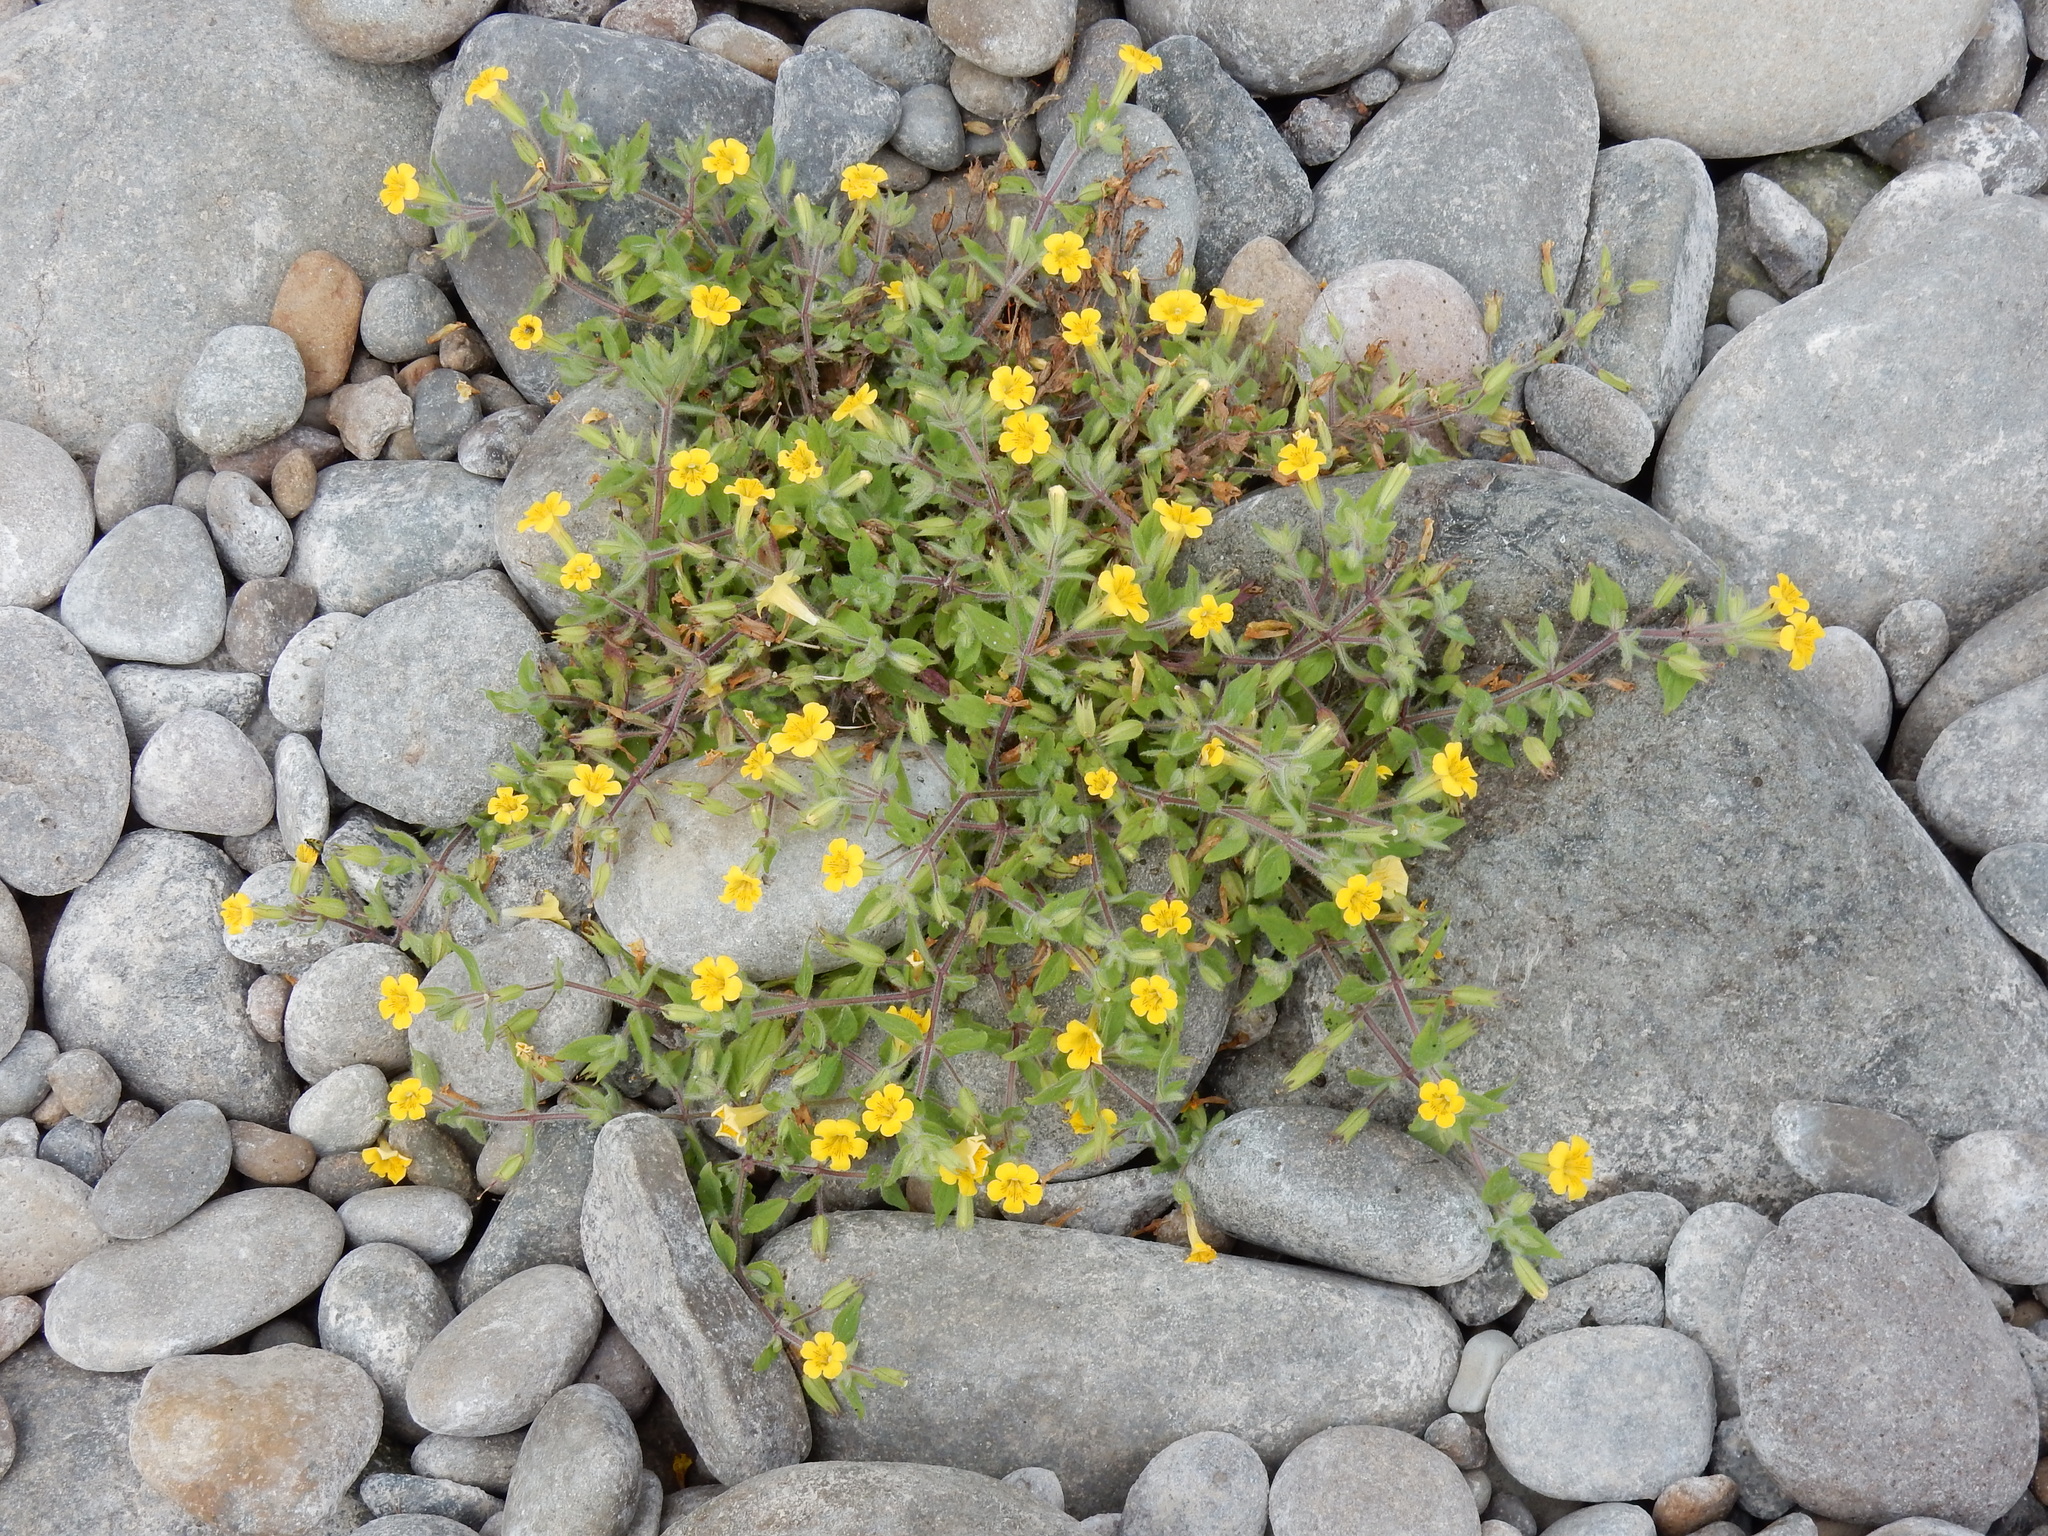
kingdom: Plantae
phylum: Tracheophyta
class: Magnoliopsida
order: Lamiales
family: Phrymaceae
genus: Erythranthe
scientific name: Erythranthe ptilota
